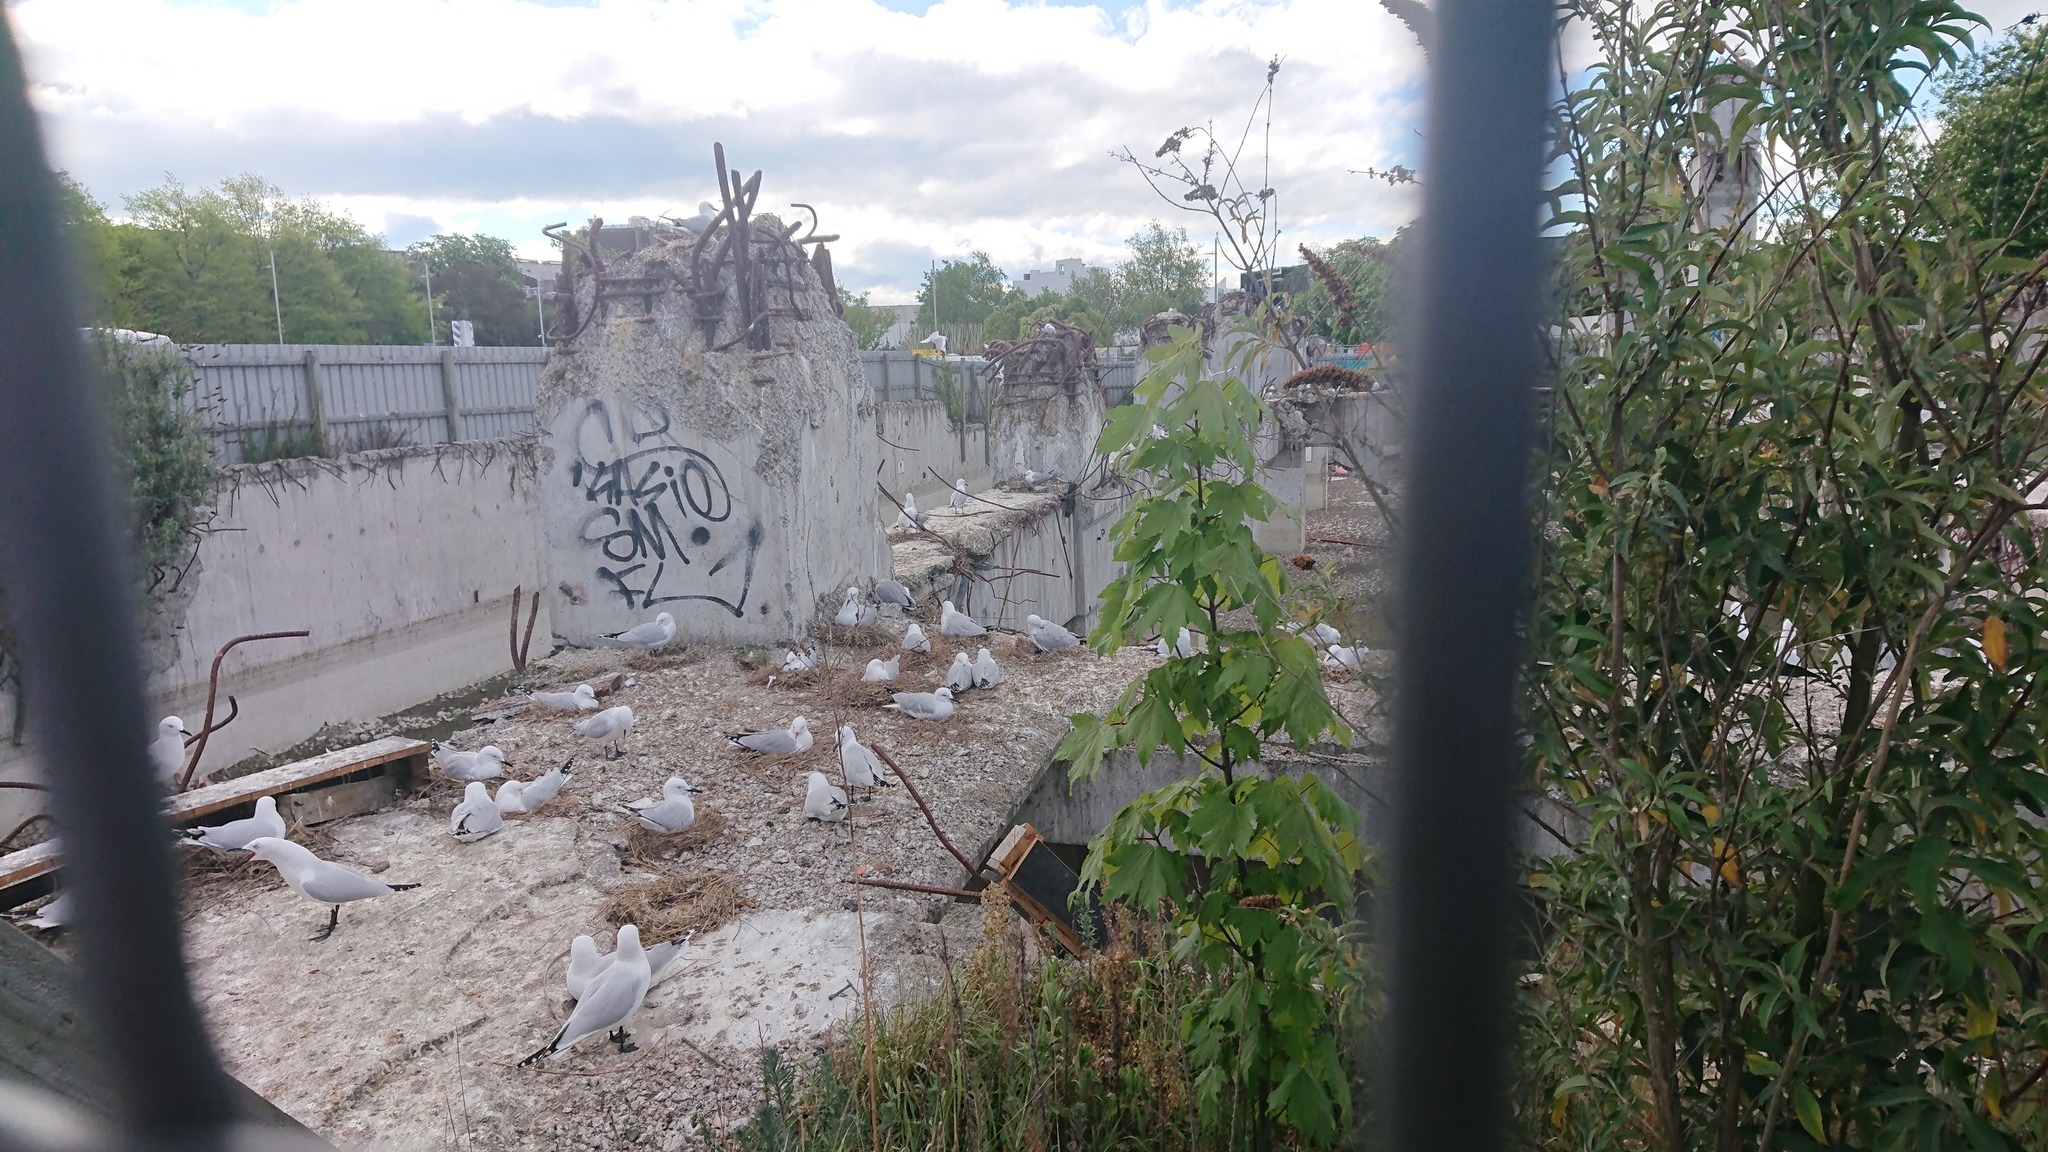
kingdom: Animalia
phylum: Chordata
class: Aves
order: Charadriiformes
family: Laridae
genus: Chroicocephalus
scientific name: Chroicocephalus bulleri
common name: Black-billed gull
